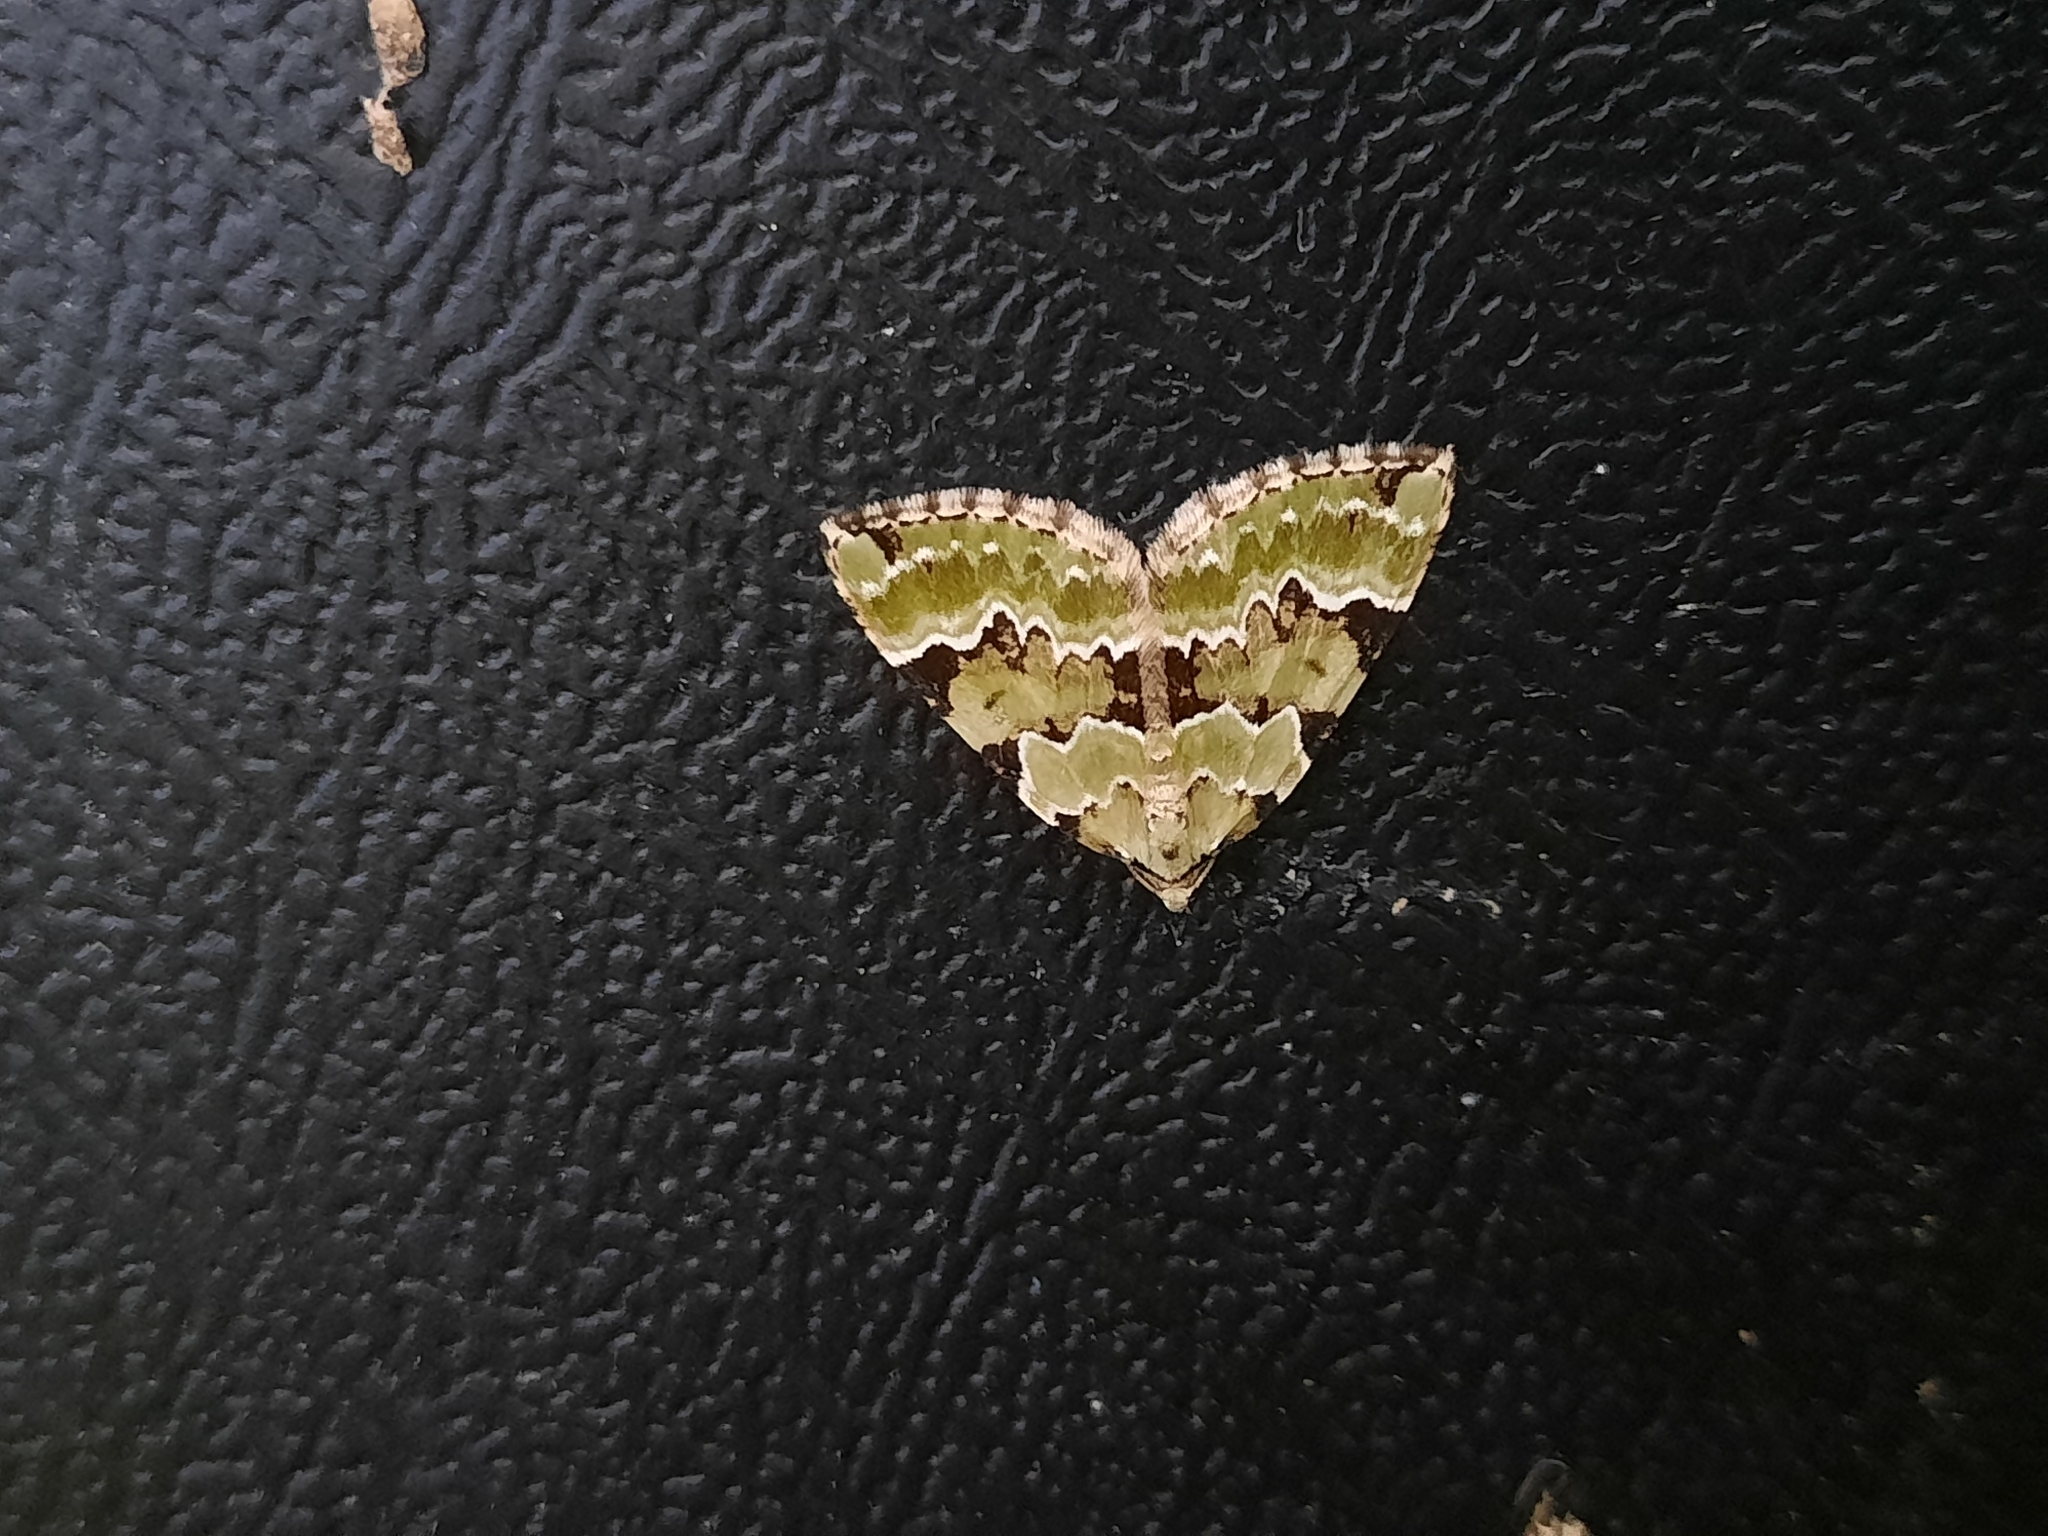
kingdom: Animalia
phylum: Arthropoda
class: Insecta
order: Lepidoptera
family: Geometridae
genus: Colostygia
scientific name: Colostygia pectinataria
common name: Green carpet
